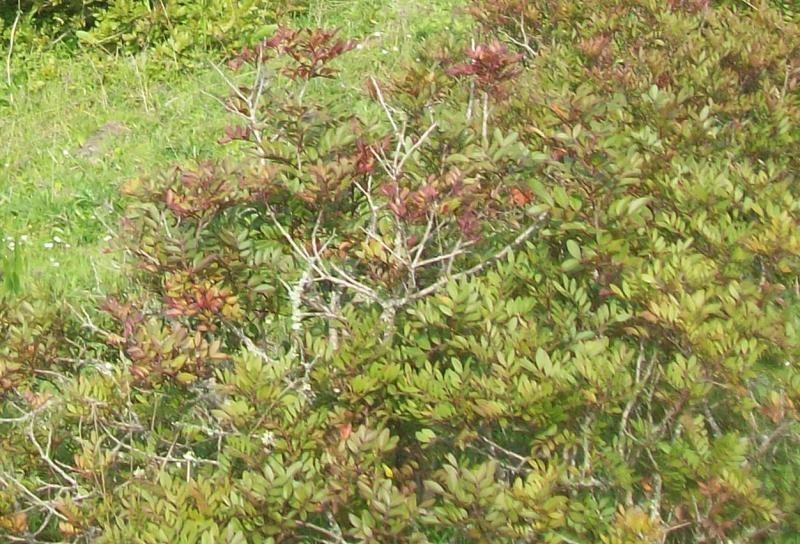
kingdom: Plantae
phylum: Tracheophyta
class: Magnoliopsida
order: Sapindales
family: Anacardiaceae
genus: Pistacia
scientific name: Pistacia lentiscus
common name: Lentisk
